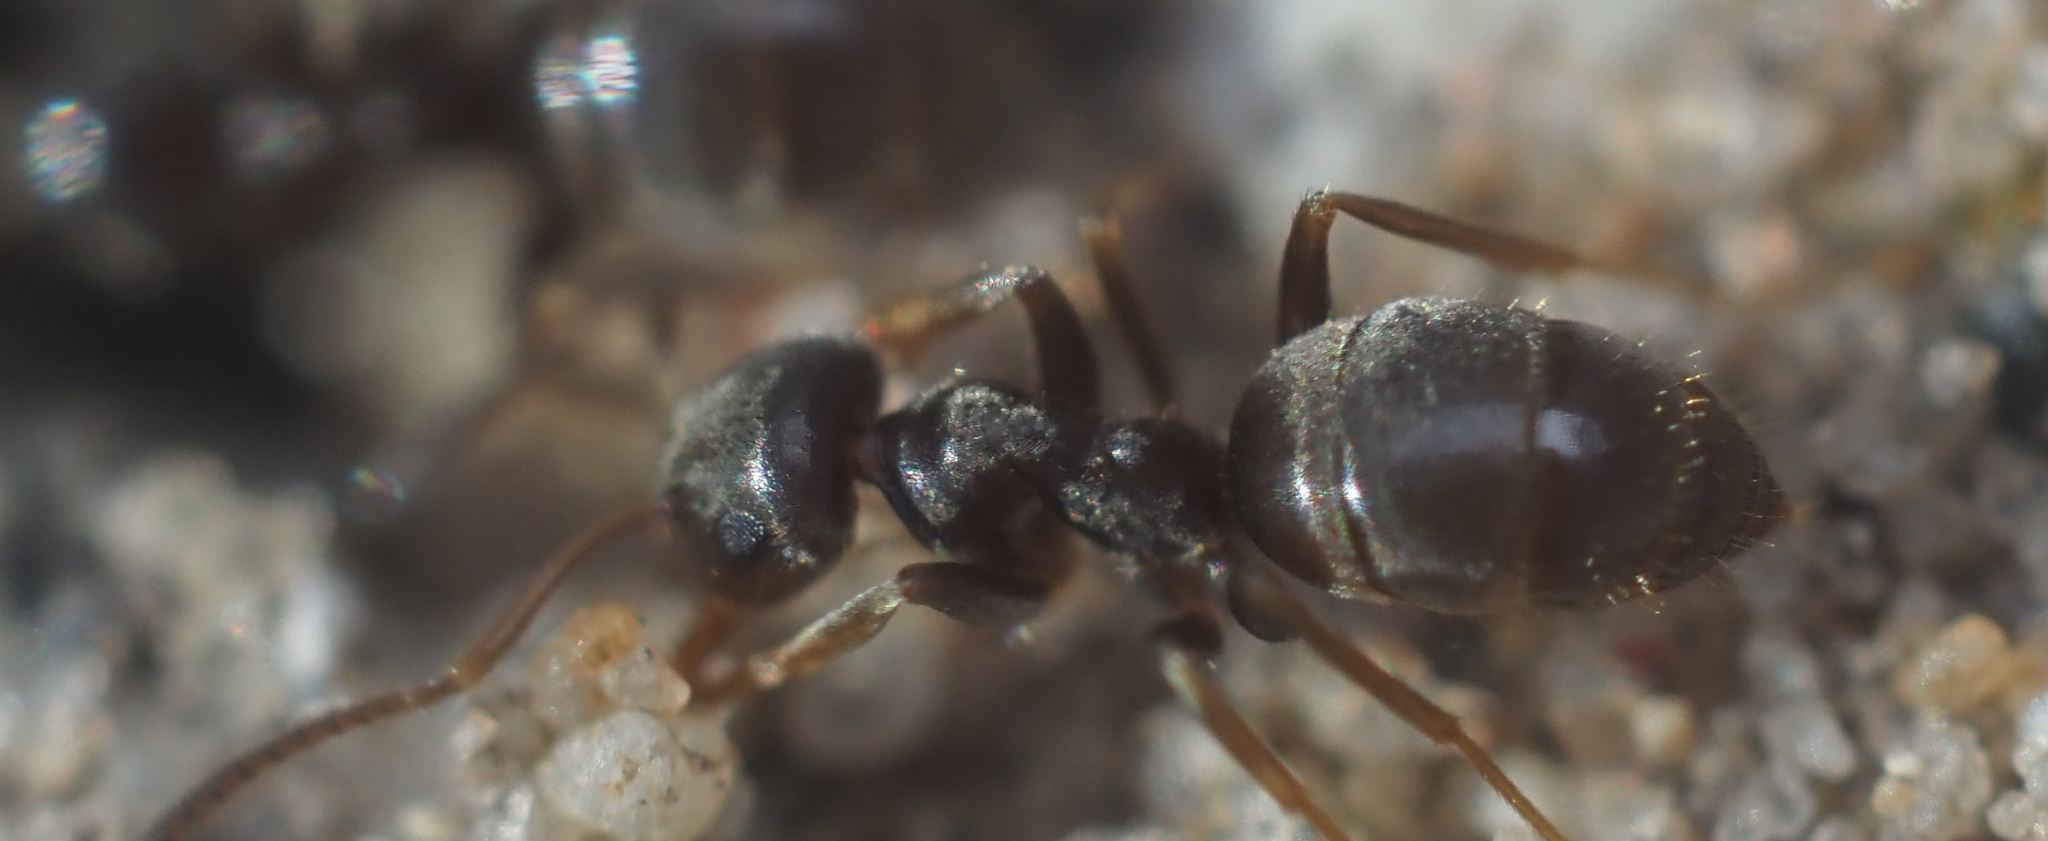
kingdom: Animalia
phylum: Arthropoda
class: Insecta
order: Hymenoptera
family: Formicidae
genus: Lasius
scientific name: Lasius americanus
